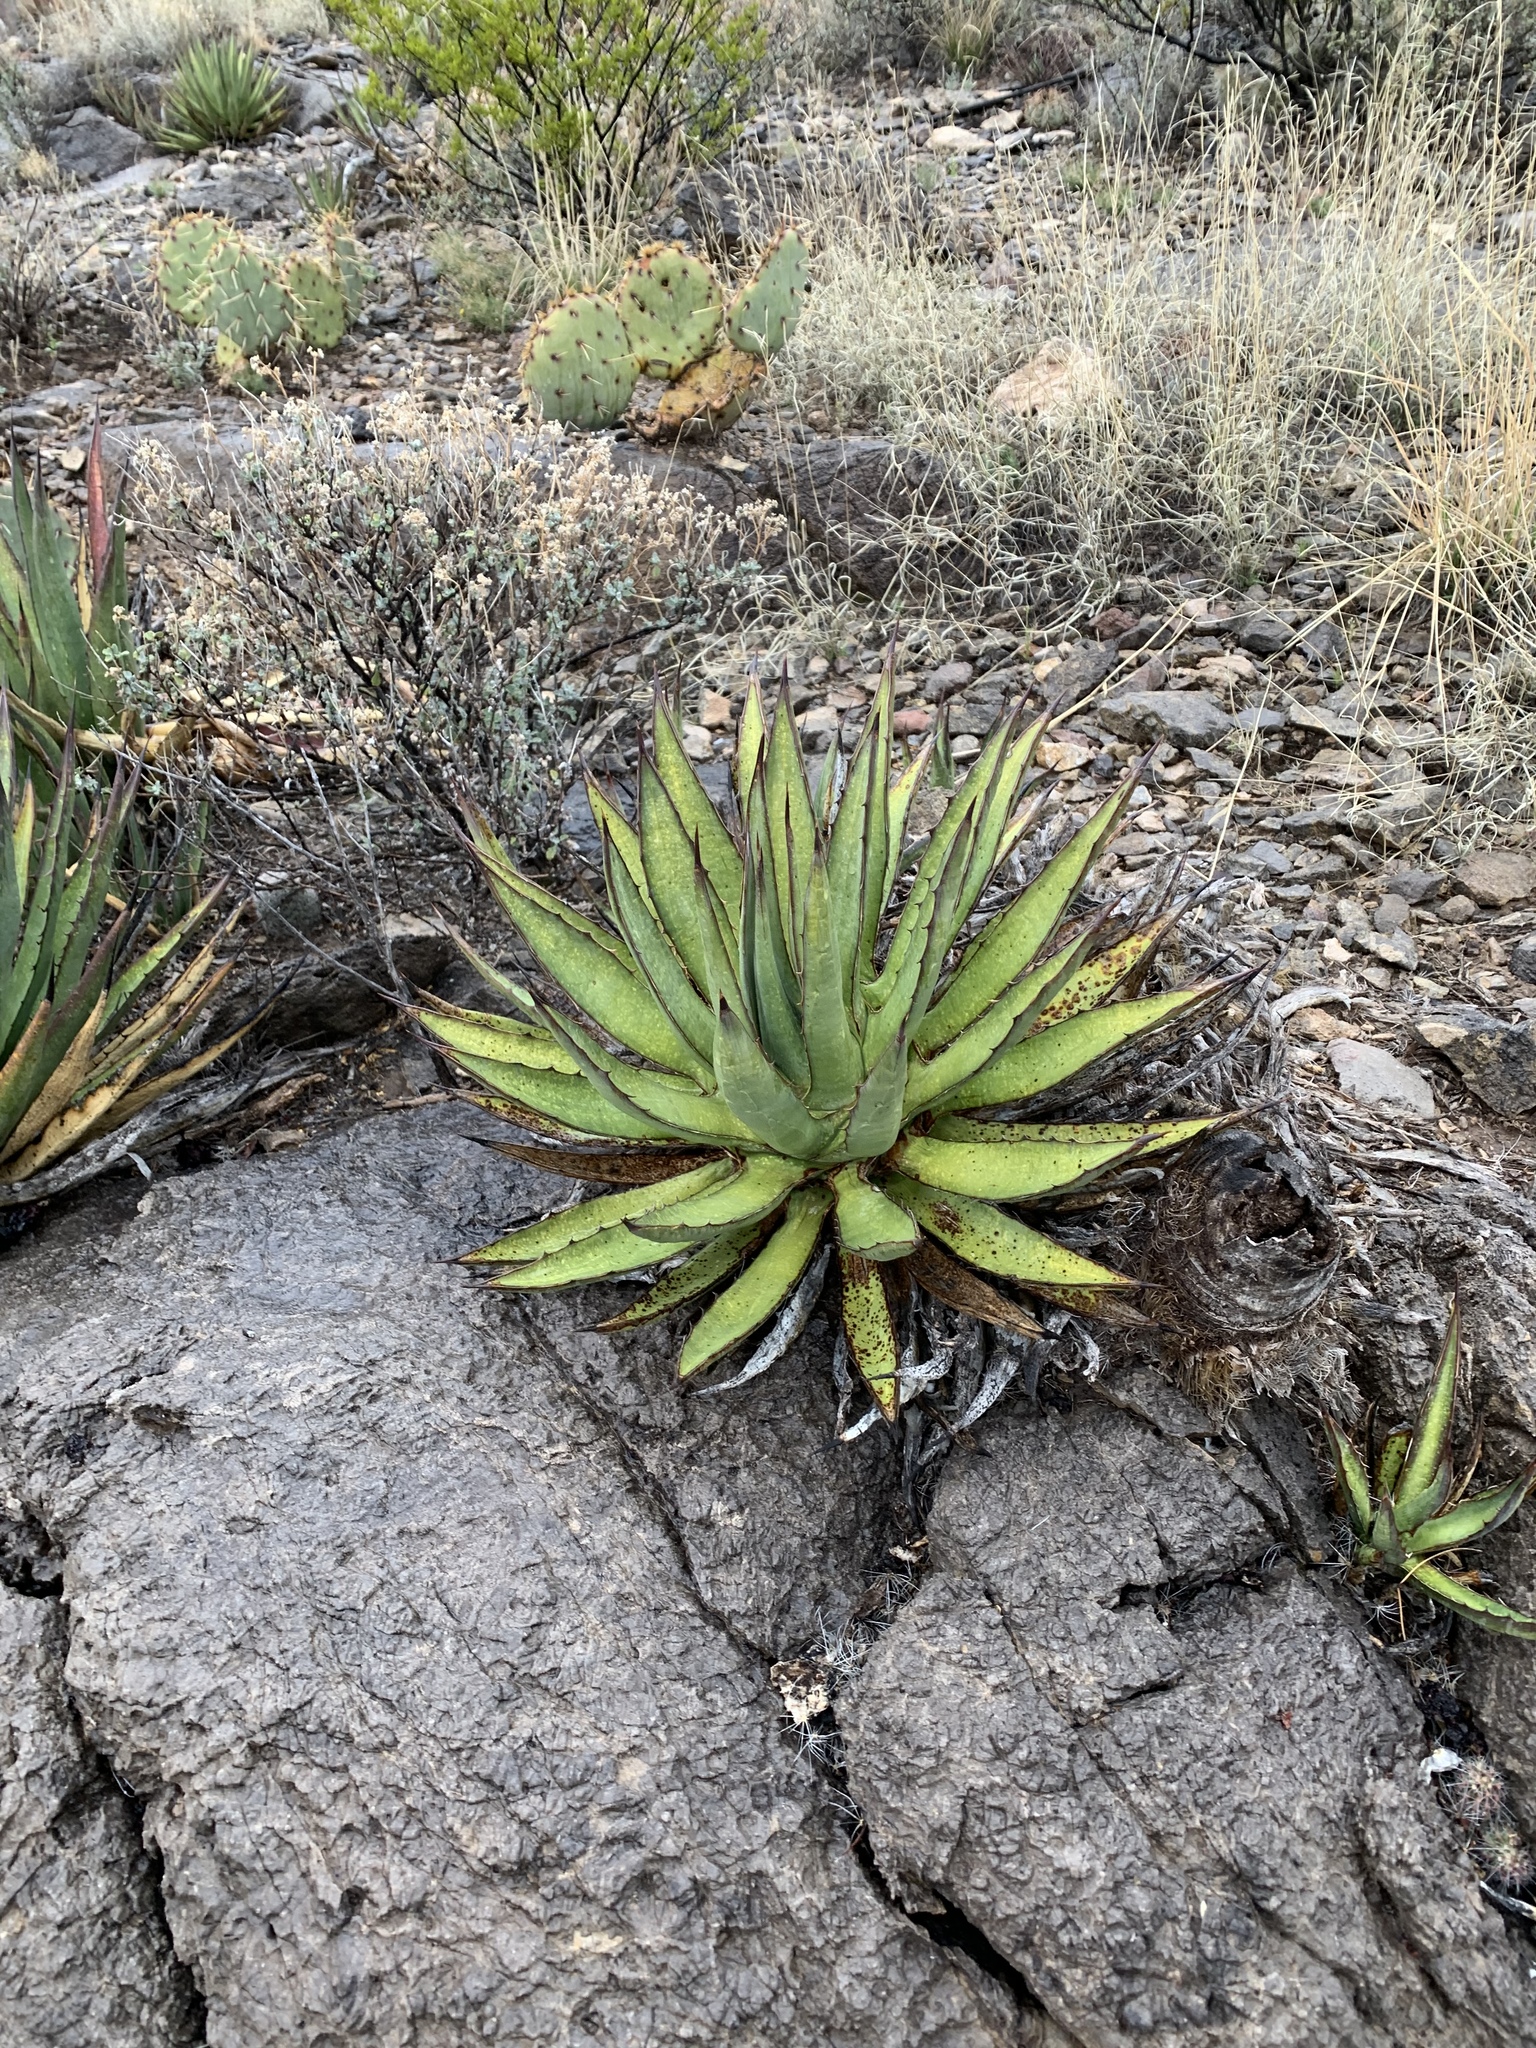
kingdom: Plantae
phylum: Tracheophyta
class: Liliopsida
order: Asparagales
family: Asparagaceae
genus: Agave
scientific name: Agave lechuguilla
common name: Lecheguilla agave
